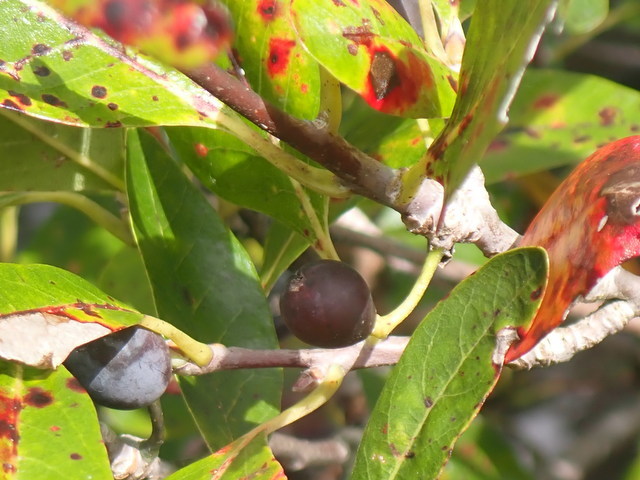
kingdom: Plantae
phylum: Tracheophyta
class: Magnoliopsida
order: Cornales
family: Nyssaceae
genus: Nyssa
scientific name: Nyssa biflora
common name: Swamp blackgum
